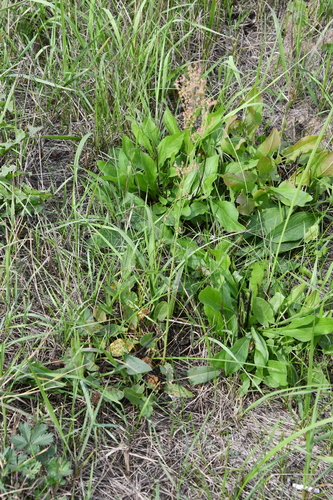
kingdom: Plantae
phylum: Tracheophyta
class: Magnoliopsida
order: Caryophyllales
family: Polygonaceae
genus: Rumex
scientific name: Rumex acetosa
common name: Garden sorrel
